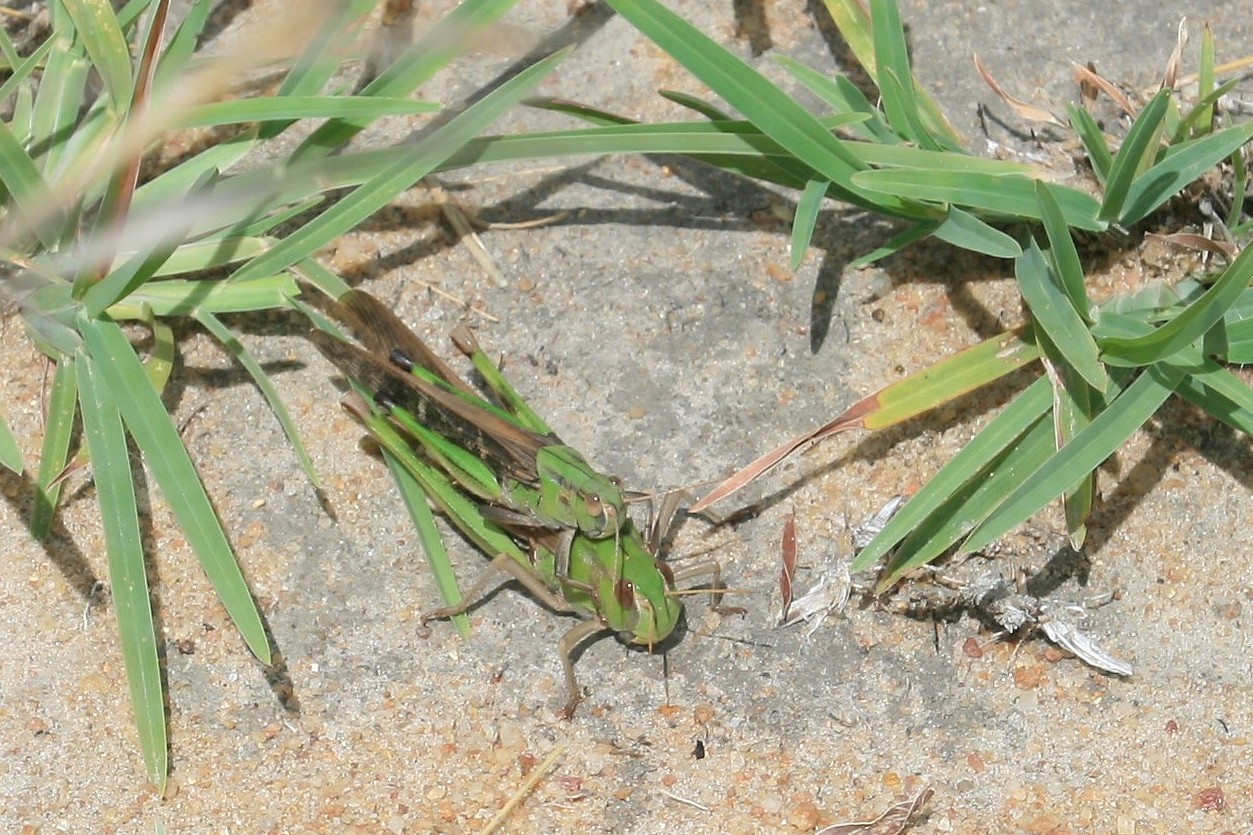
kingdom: Animalia
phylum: Arthropoda
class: Insecta
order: Orthoptera
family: Acrididae
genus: Locusta
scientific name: Locusta migratoria
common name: Migratory locust
